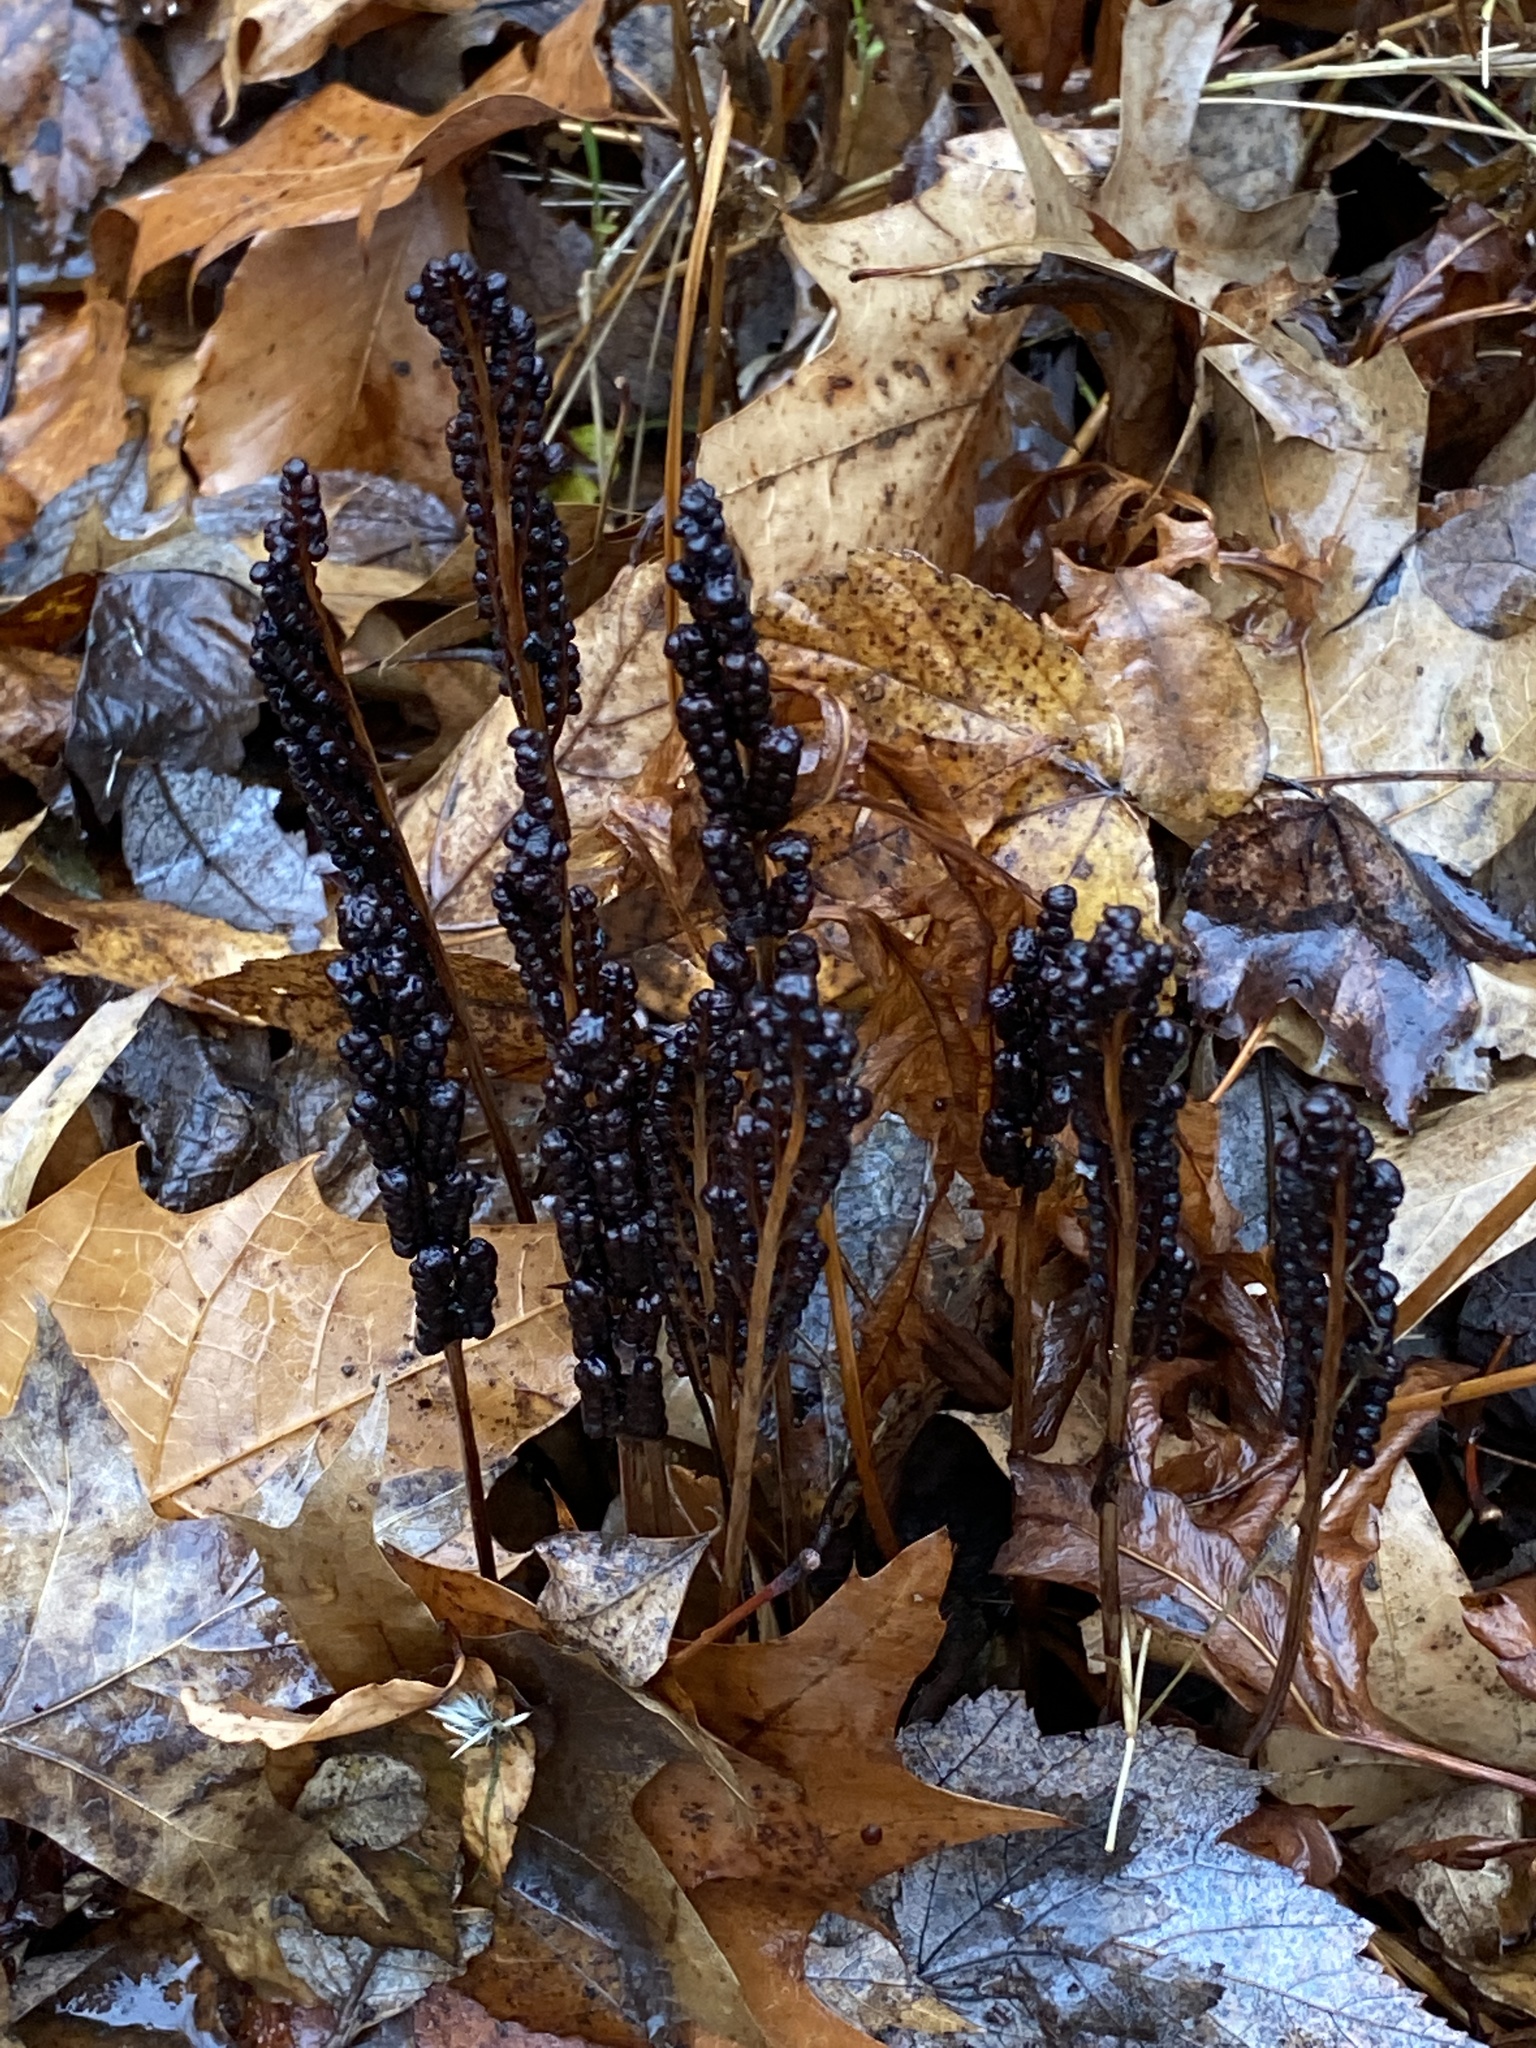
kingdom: Plantae
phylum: Tracheophyta
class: Polypodiopsida
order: Polypodiales
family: Onocleaceae
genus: Onoclea
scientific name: Onoclea sensibilis
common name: Sensitive fern
